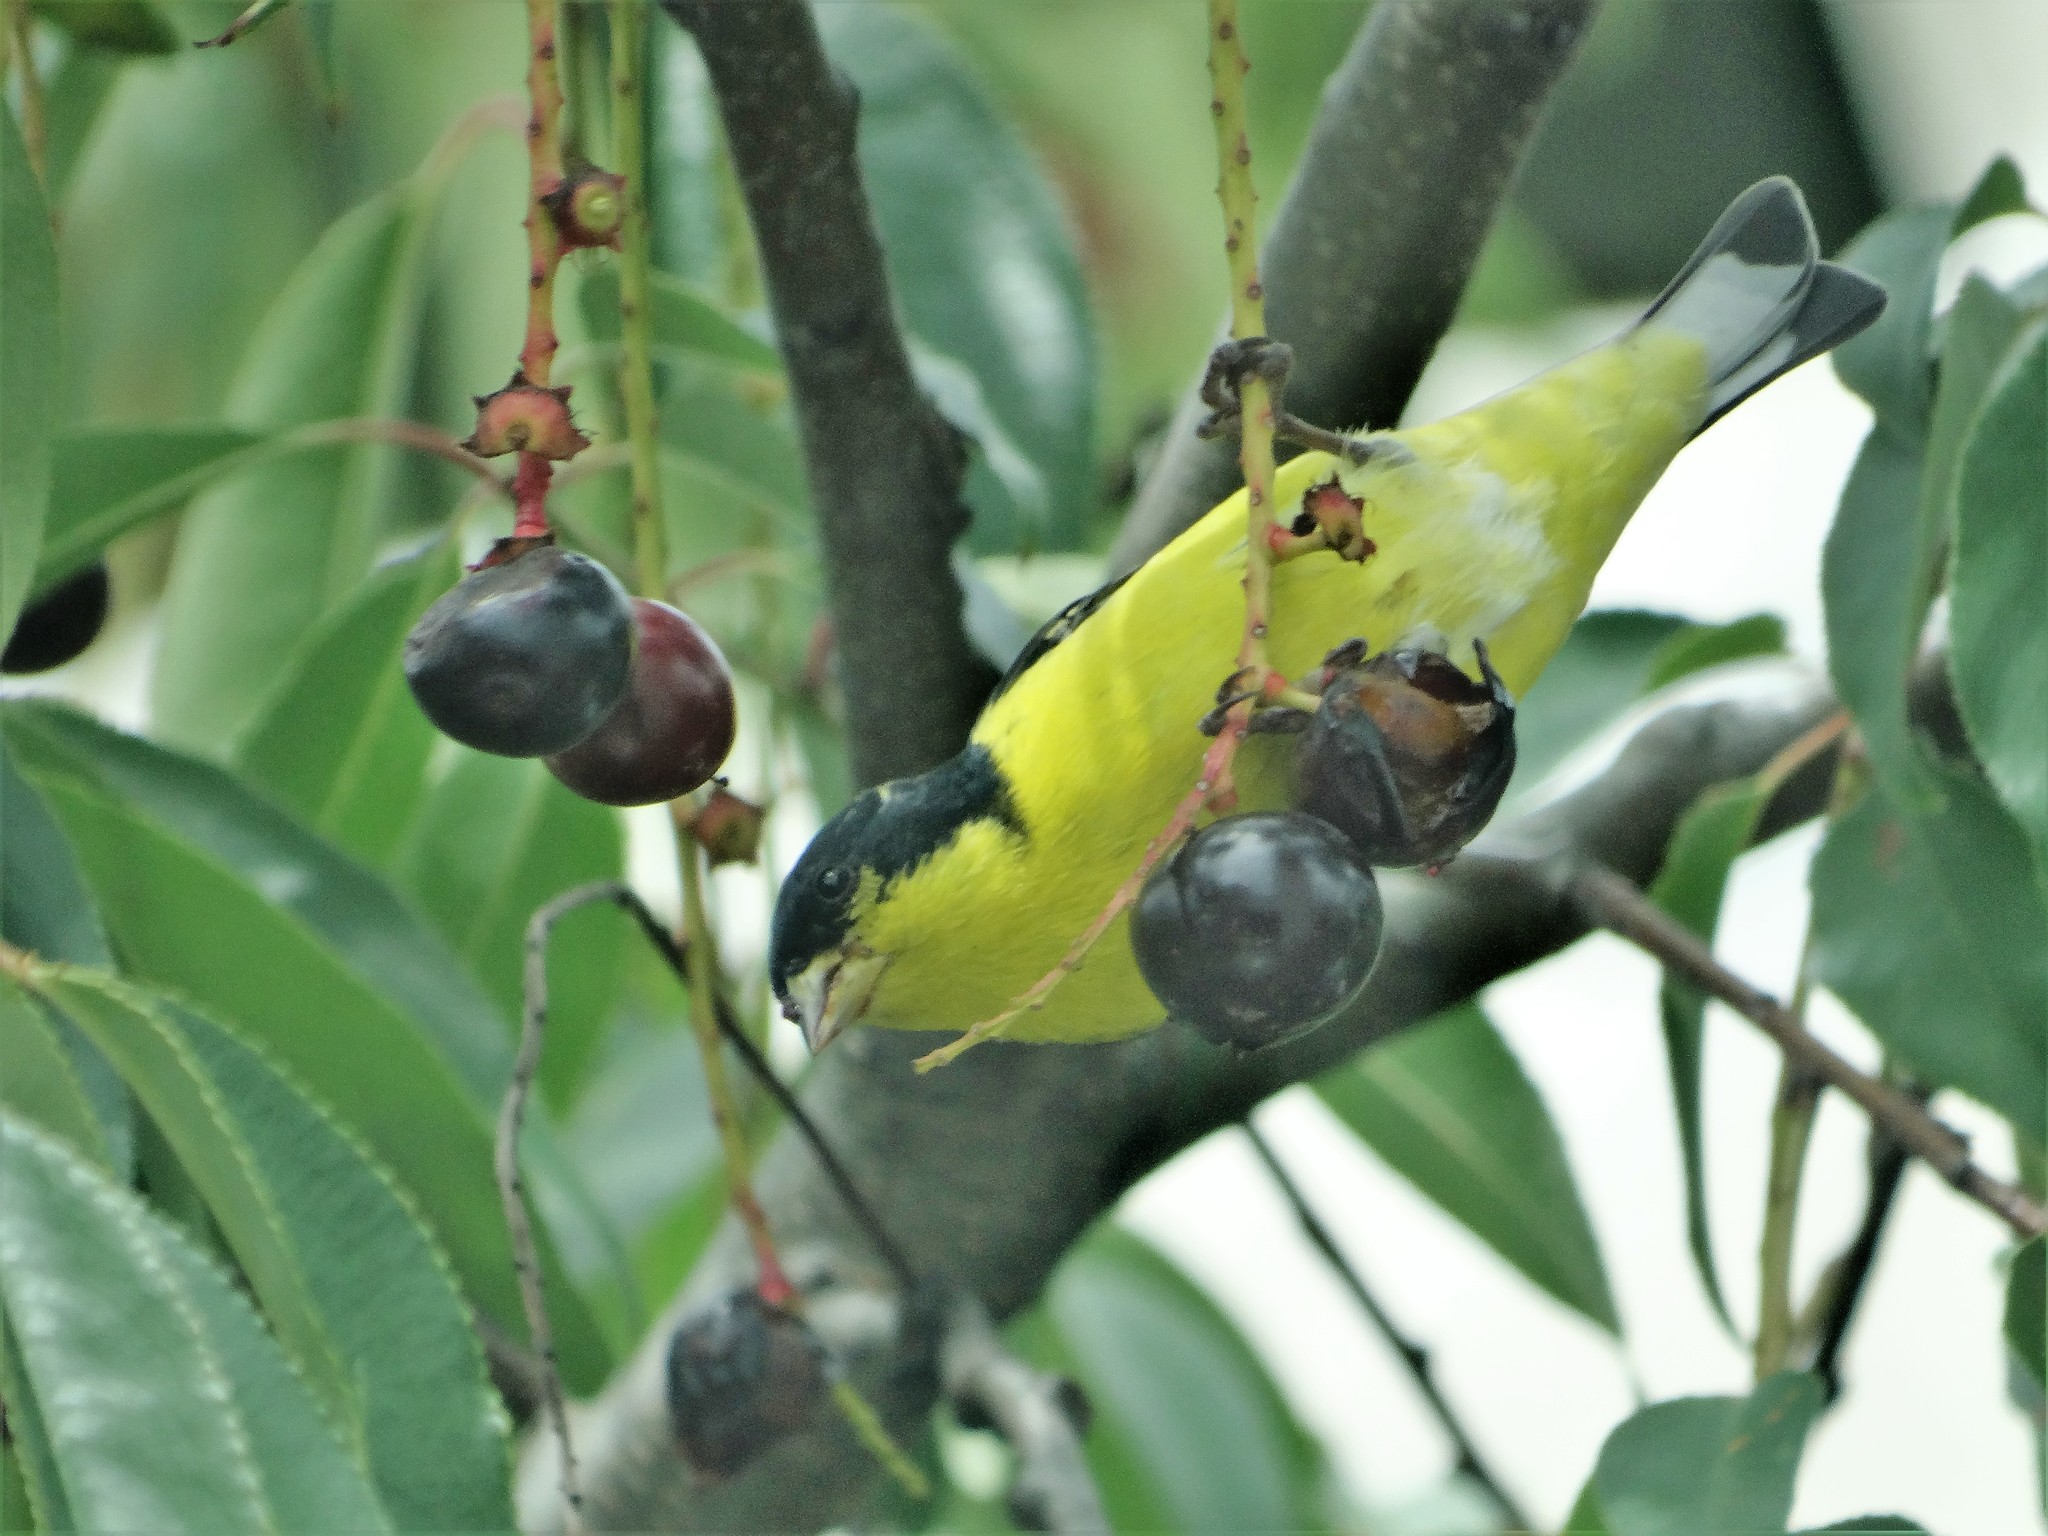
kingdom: Animalia
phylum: Chordata
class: Aves
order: Passeriformes
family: Fringillidae
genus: Spinus
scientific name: Spinus psaltria
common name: Lesser goldfinch
